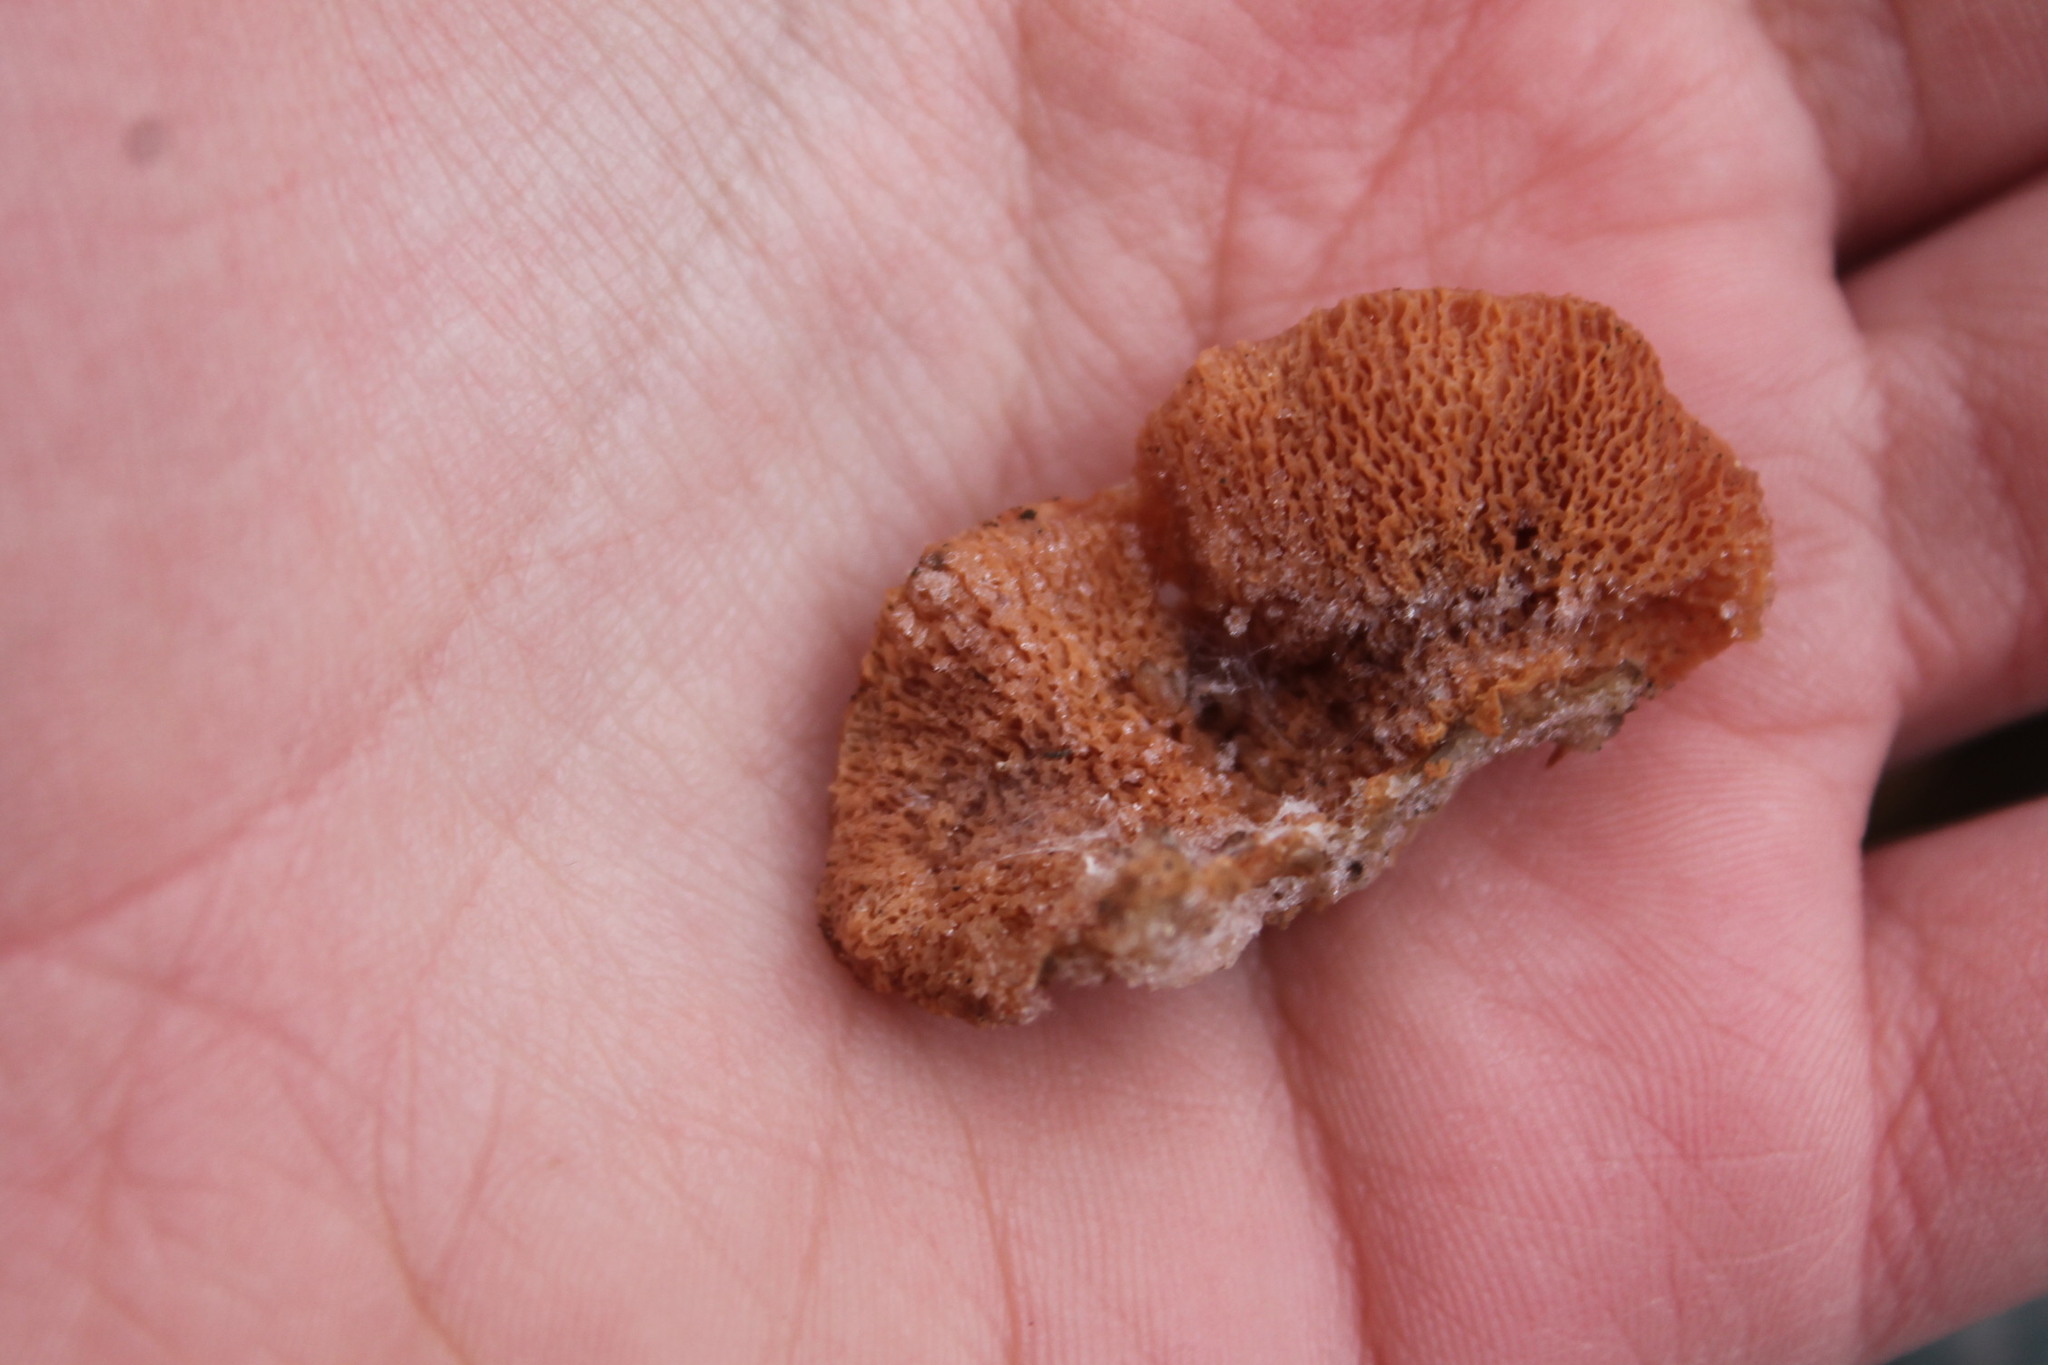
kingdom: Fungi
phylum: Basidiomycota
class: Agaricomycetes
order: Polyporales
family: Meruliaceae
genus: Phlebia
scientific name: Phlebia tremellosa
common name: Jelly rot
